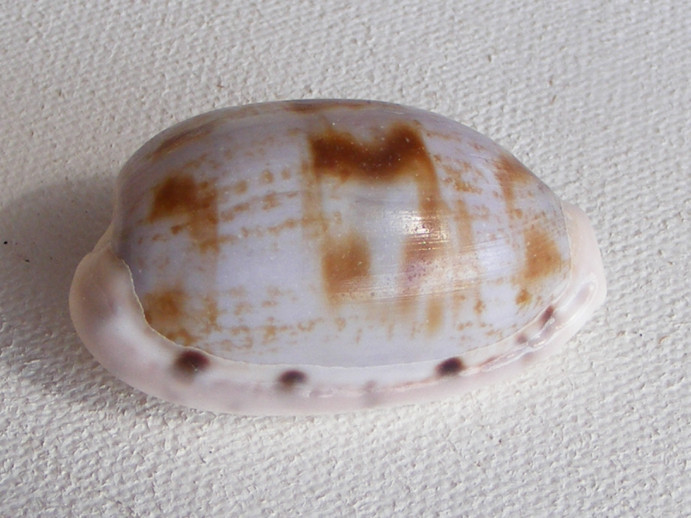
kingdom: Animalia
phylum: Mollusca
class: Gastropoda
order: Littorinimorpha
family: Cypraeidae
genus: Talostolida
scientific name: Talostolida pellucens
